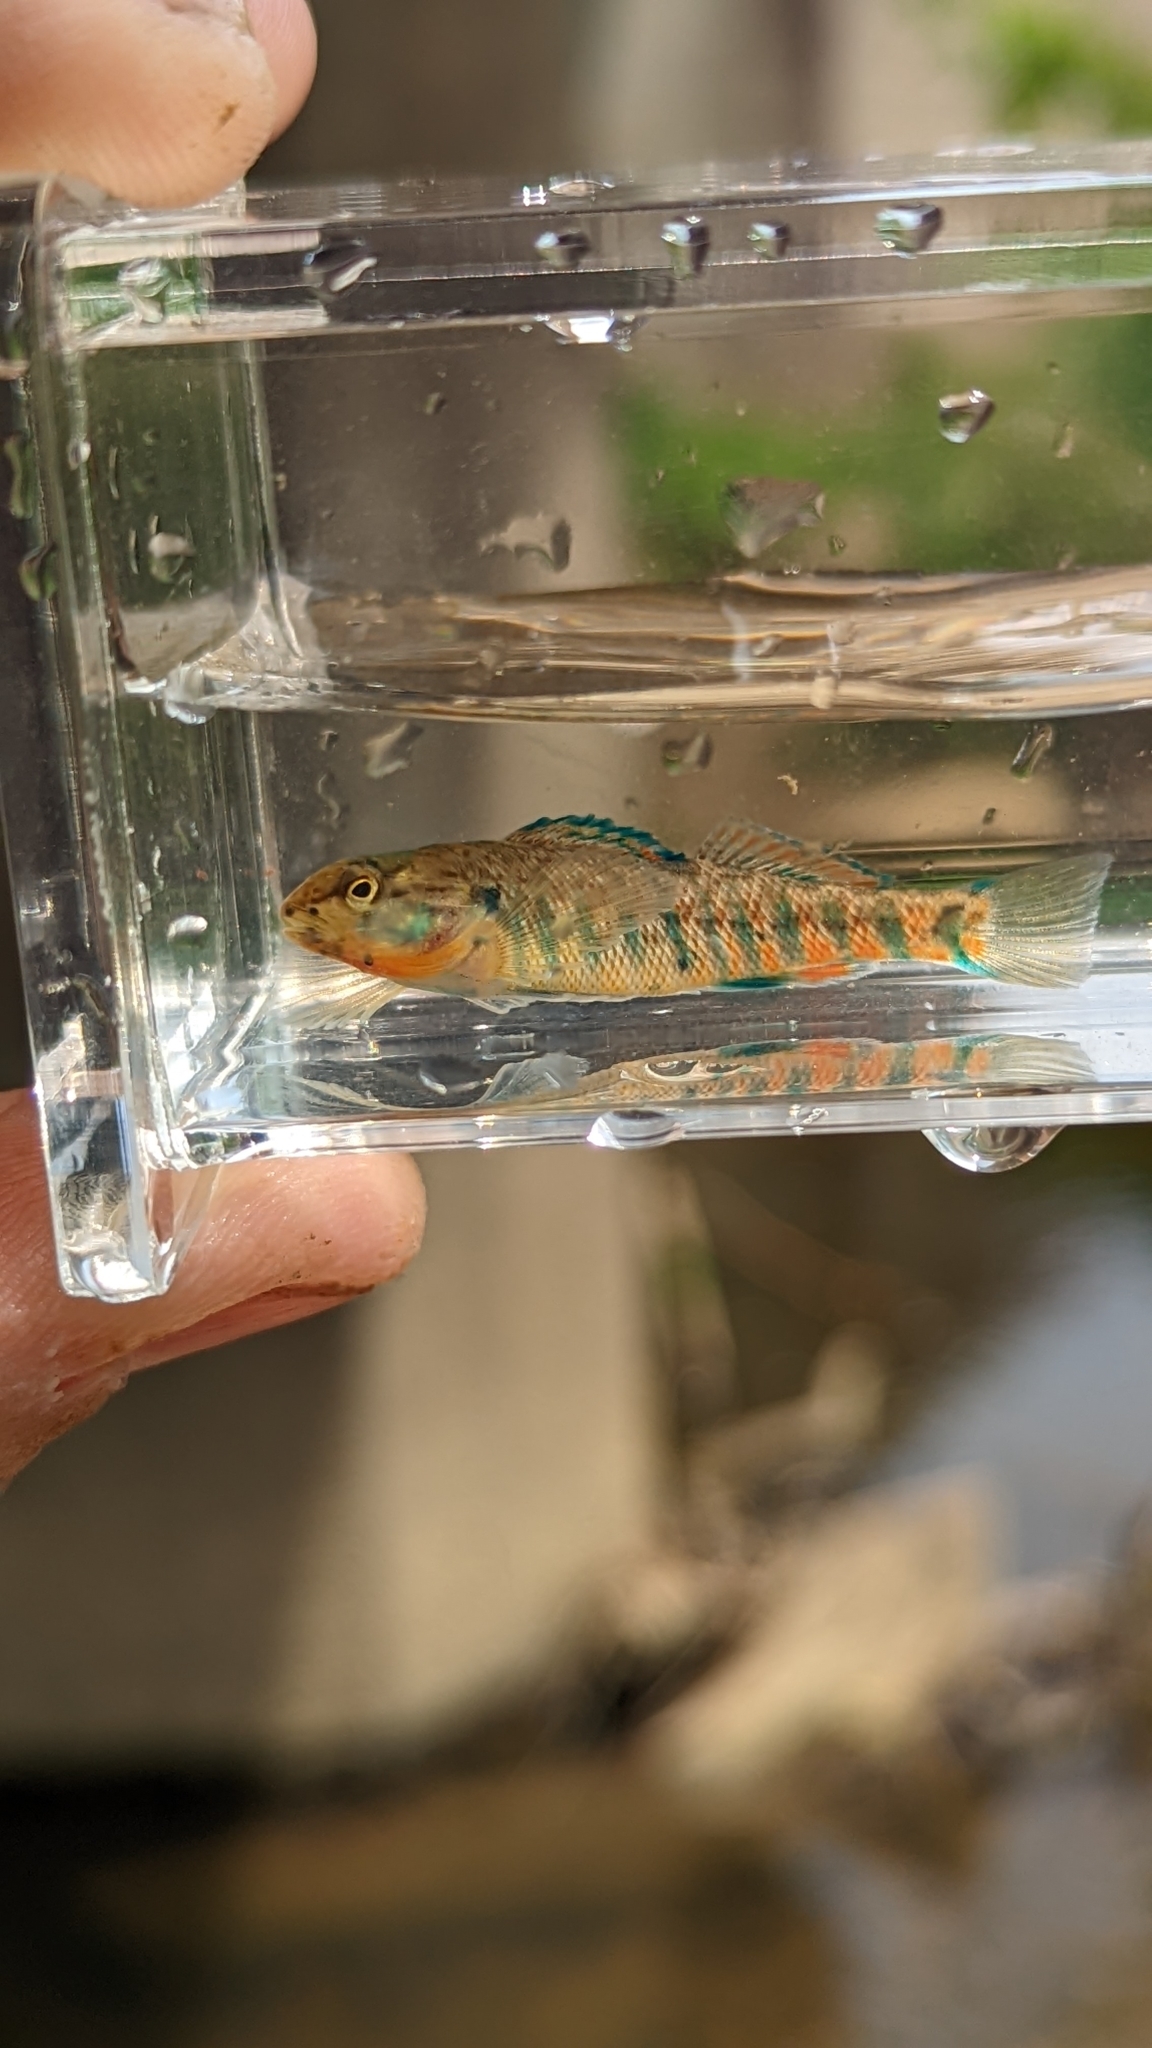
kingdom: Animalia
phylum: Chordata
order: Perciformes
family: Percidae
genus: Etheostoma
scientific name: Etheostoma caeruleum
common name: Rainbow darter
